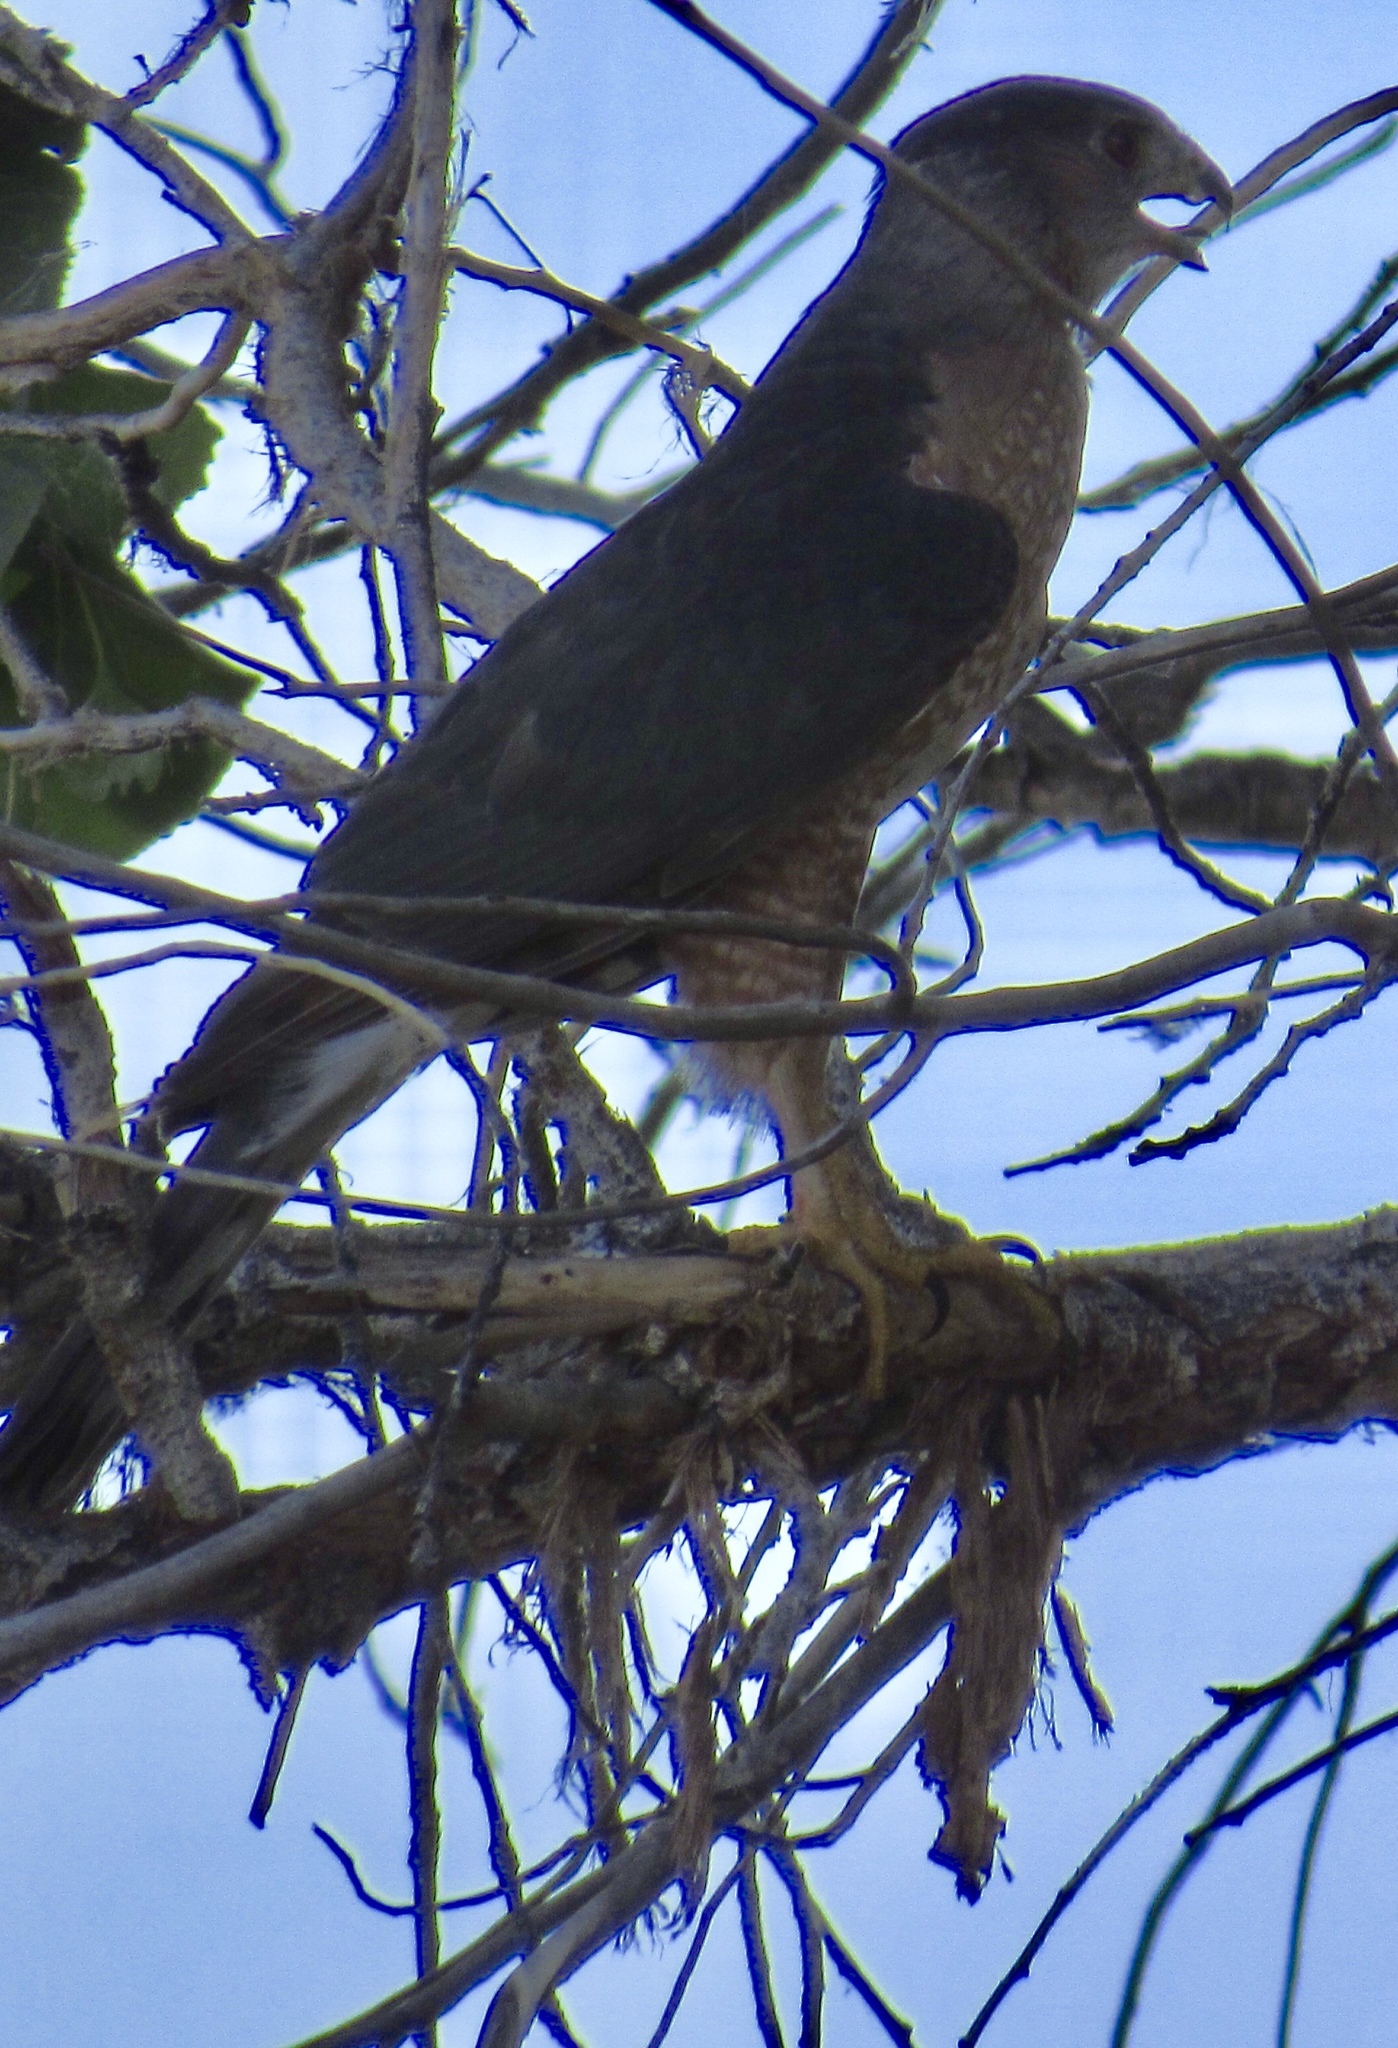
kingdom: Animalia
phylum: Chordata
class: Aves
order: Accipitriformes
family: Accipitridae
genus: Accipiter
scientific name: Accipiter cooperii
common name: Cooper's hawk
